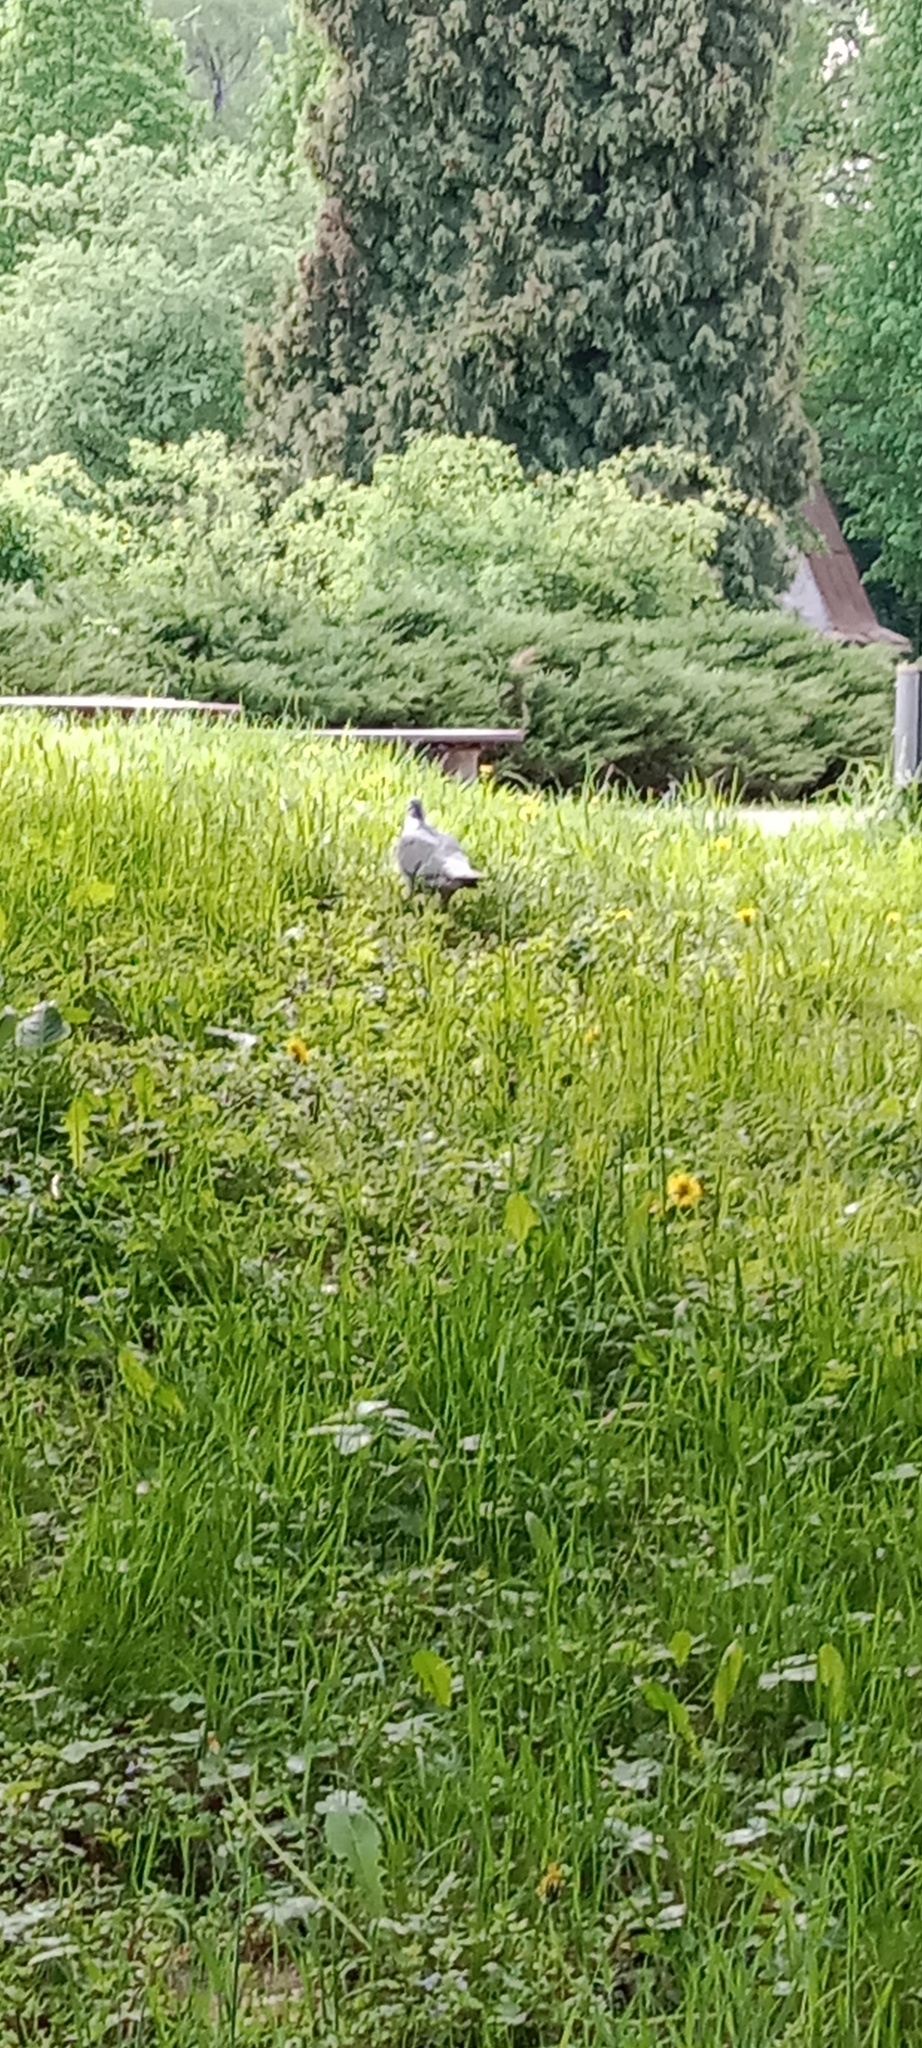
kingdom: Animalia
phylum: Chordata
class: Aves
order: Columbiformes
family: Columbidae
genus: Columba
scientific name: Columba palumbus
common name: Common wood pigeon
